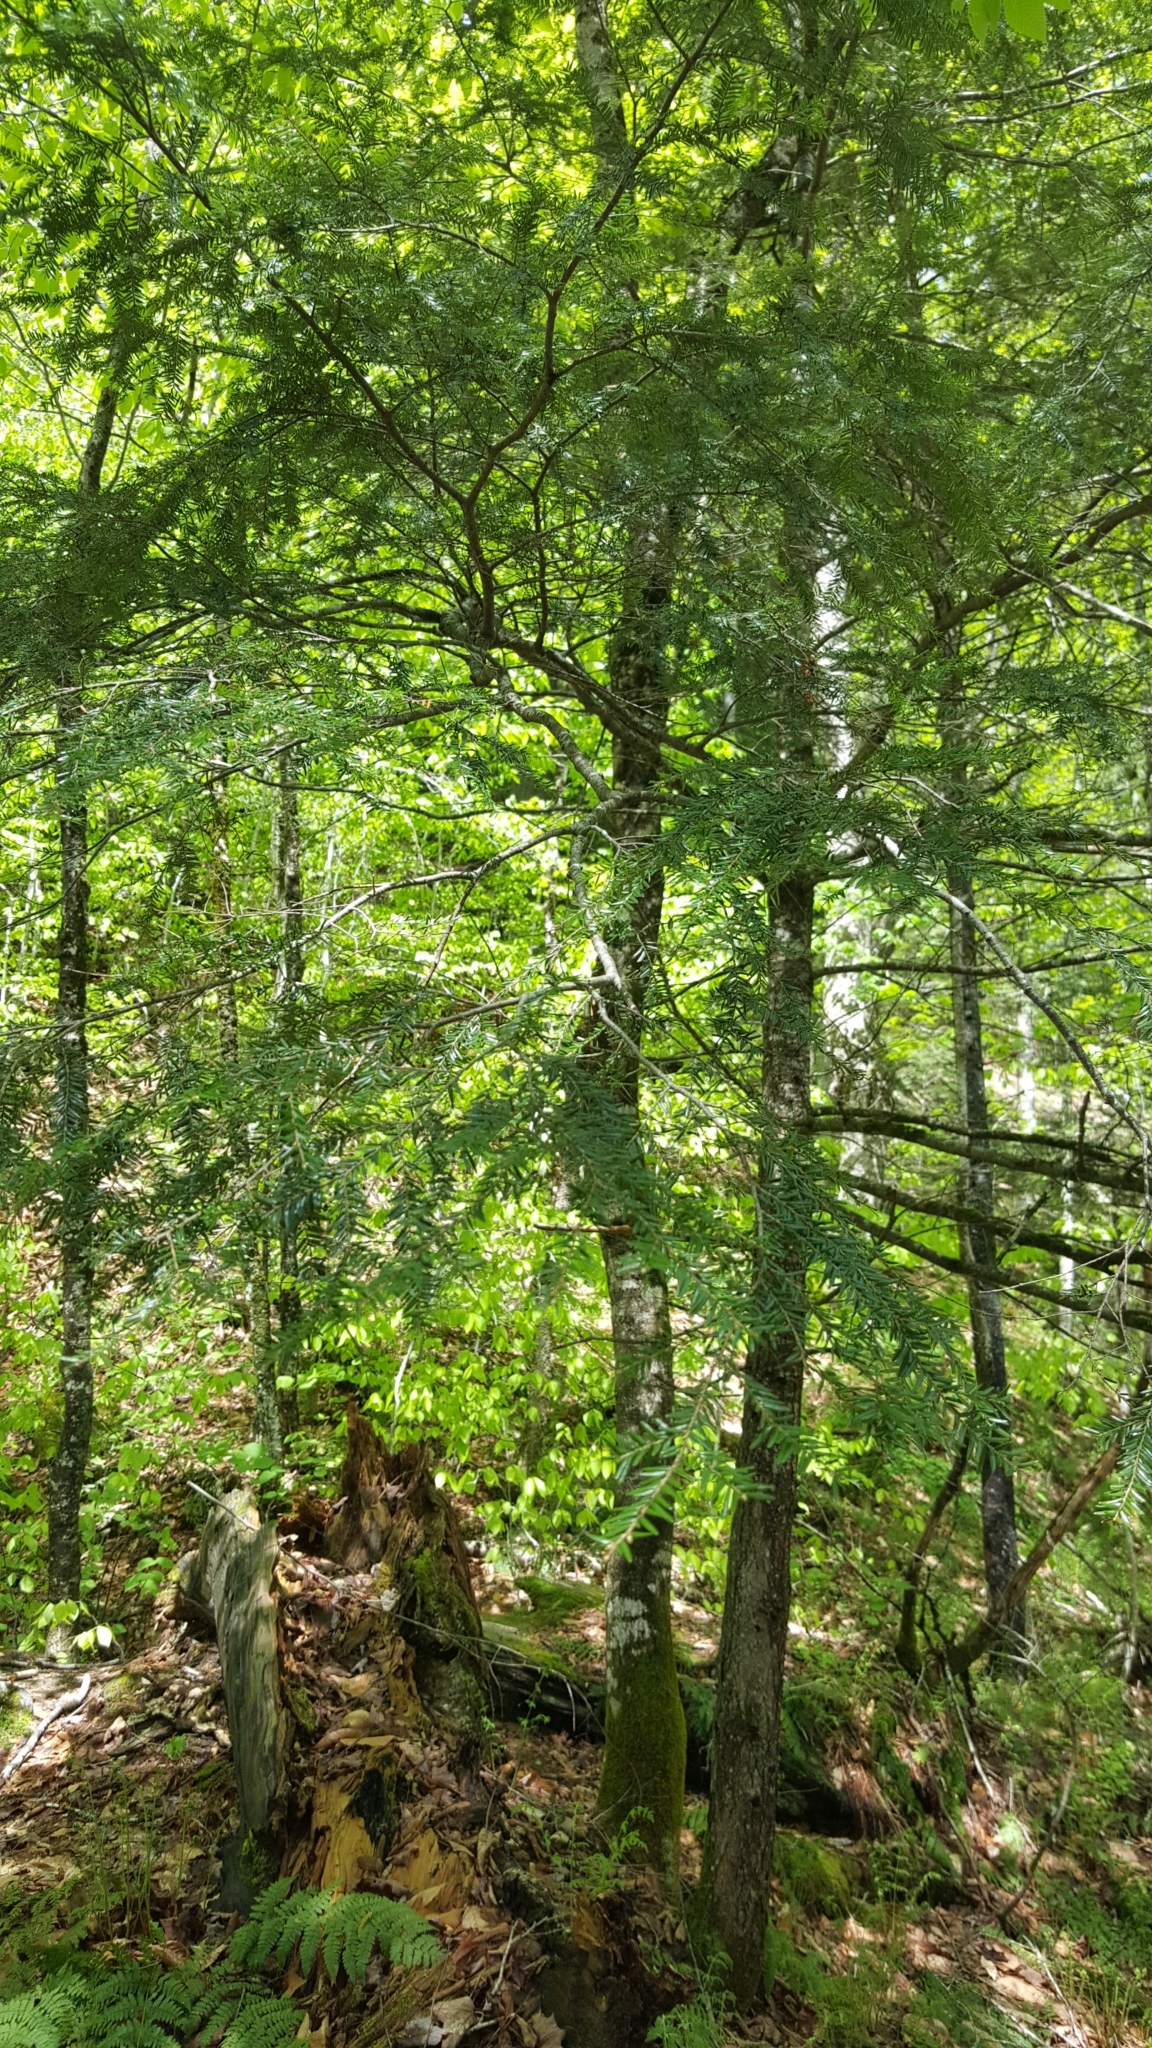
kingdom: Plantae
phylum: Tracheophyta
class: Pinopsida
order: Pinales
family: Pinaceae
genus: Tsuga
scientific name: Tsuga canadensis
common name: Eastern hemlock
